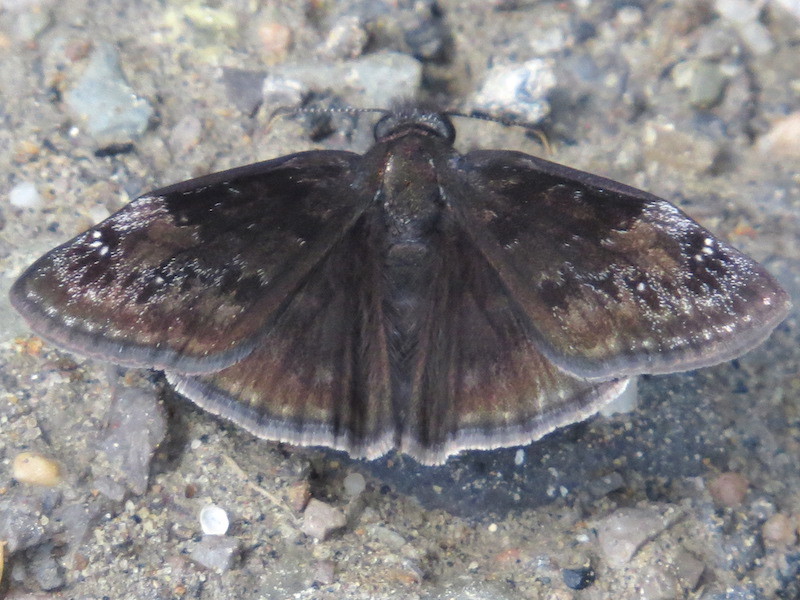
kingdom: Animalia
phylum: Arthropoda
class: Insecta
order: Lepidoptera
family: Hesperiidae
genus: Erynnis
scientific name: Erynnis baptisiae
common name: Wild indigo duskywing
